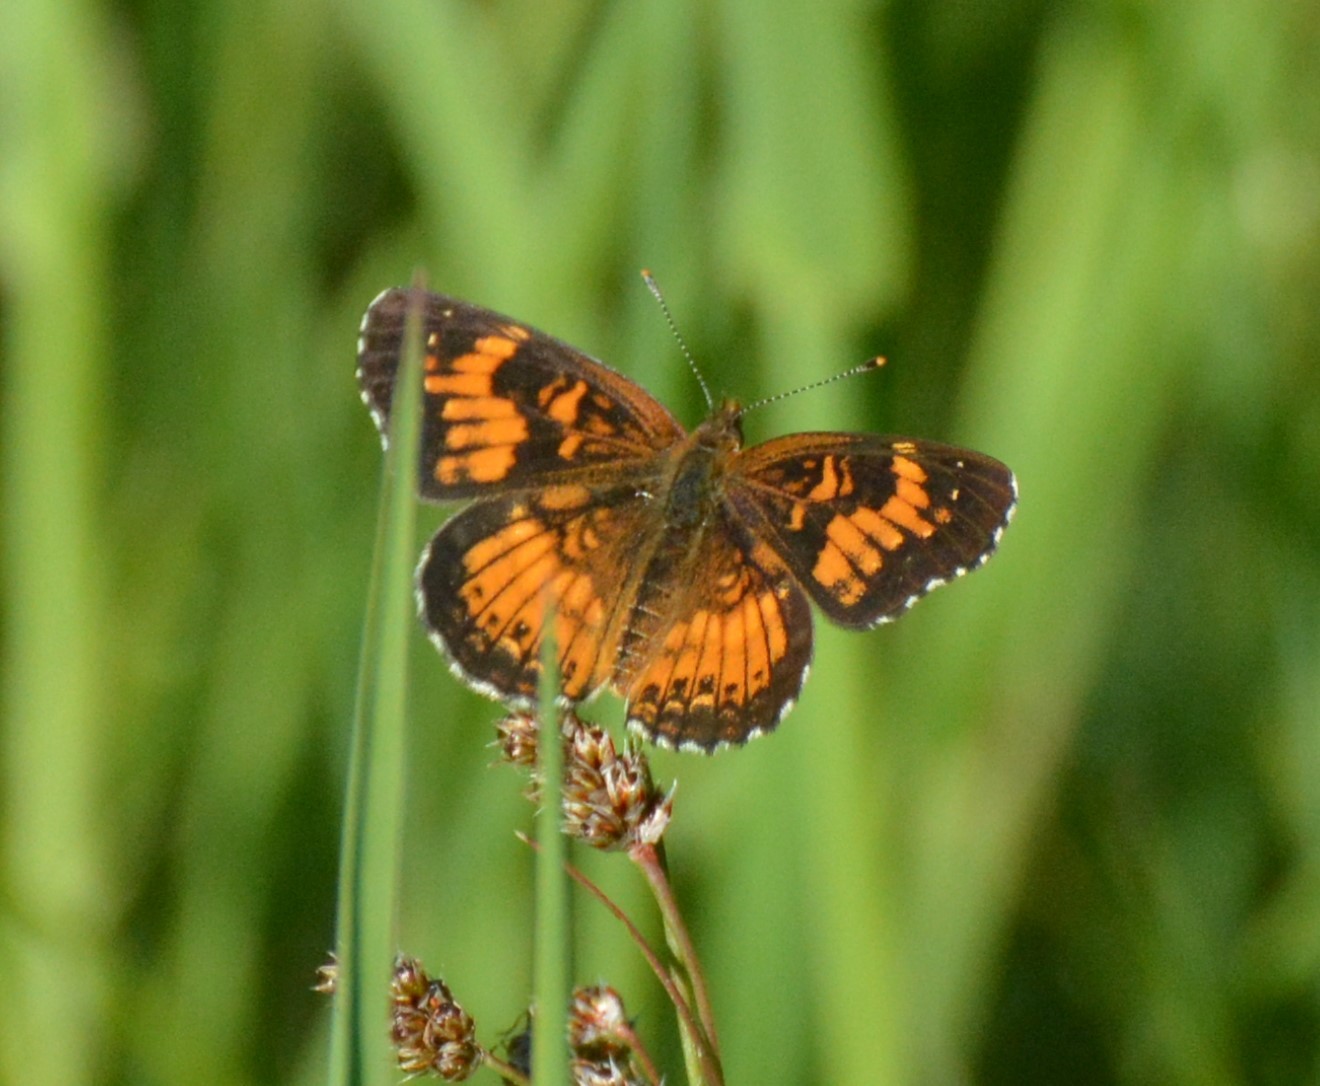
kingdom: Animalia
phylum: Arthropoda
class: Insecta
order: Lepidoptera
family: Nymphalidae
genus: Chlosyne
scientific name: Chlosyne harrisii
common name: Harris's checkerspot
